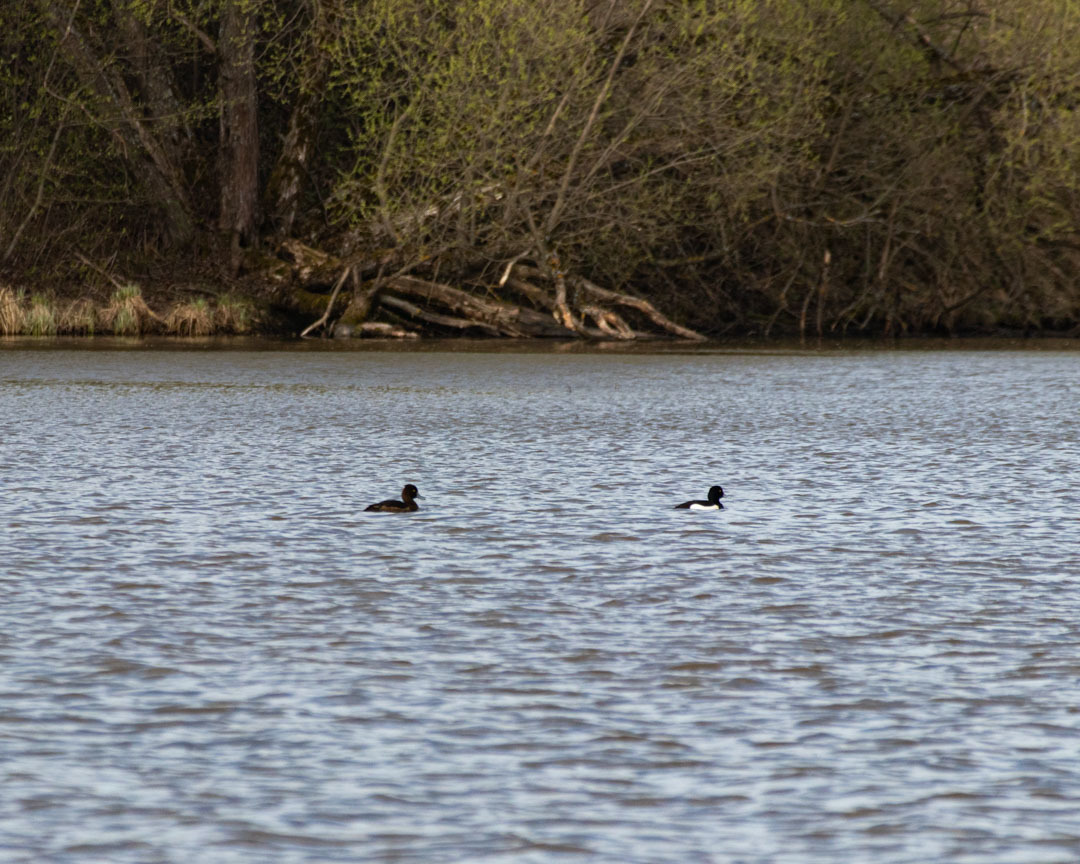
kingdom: Animalia
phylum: Chordata
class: Aves
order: Anseriformes
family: Anatidae
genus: Aythya
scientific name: Aythya fuligula
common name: Tufted duck
